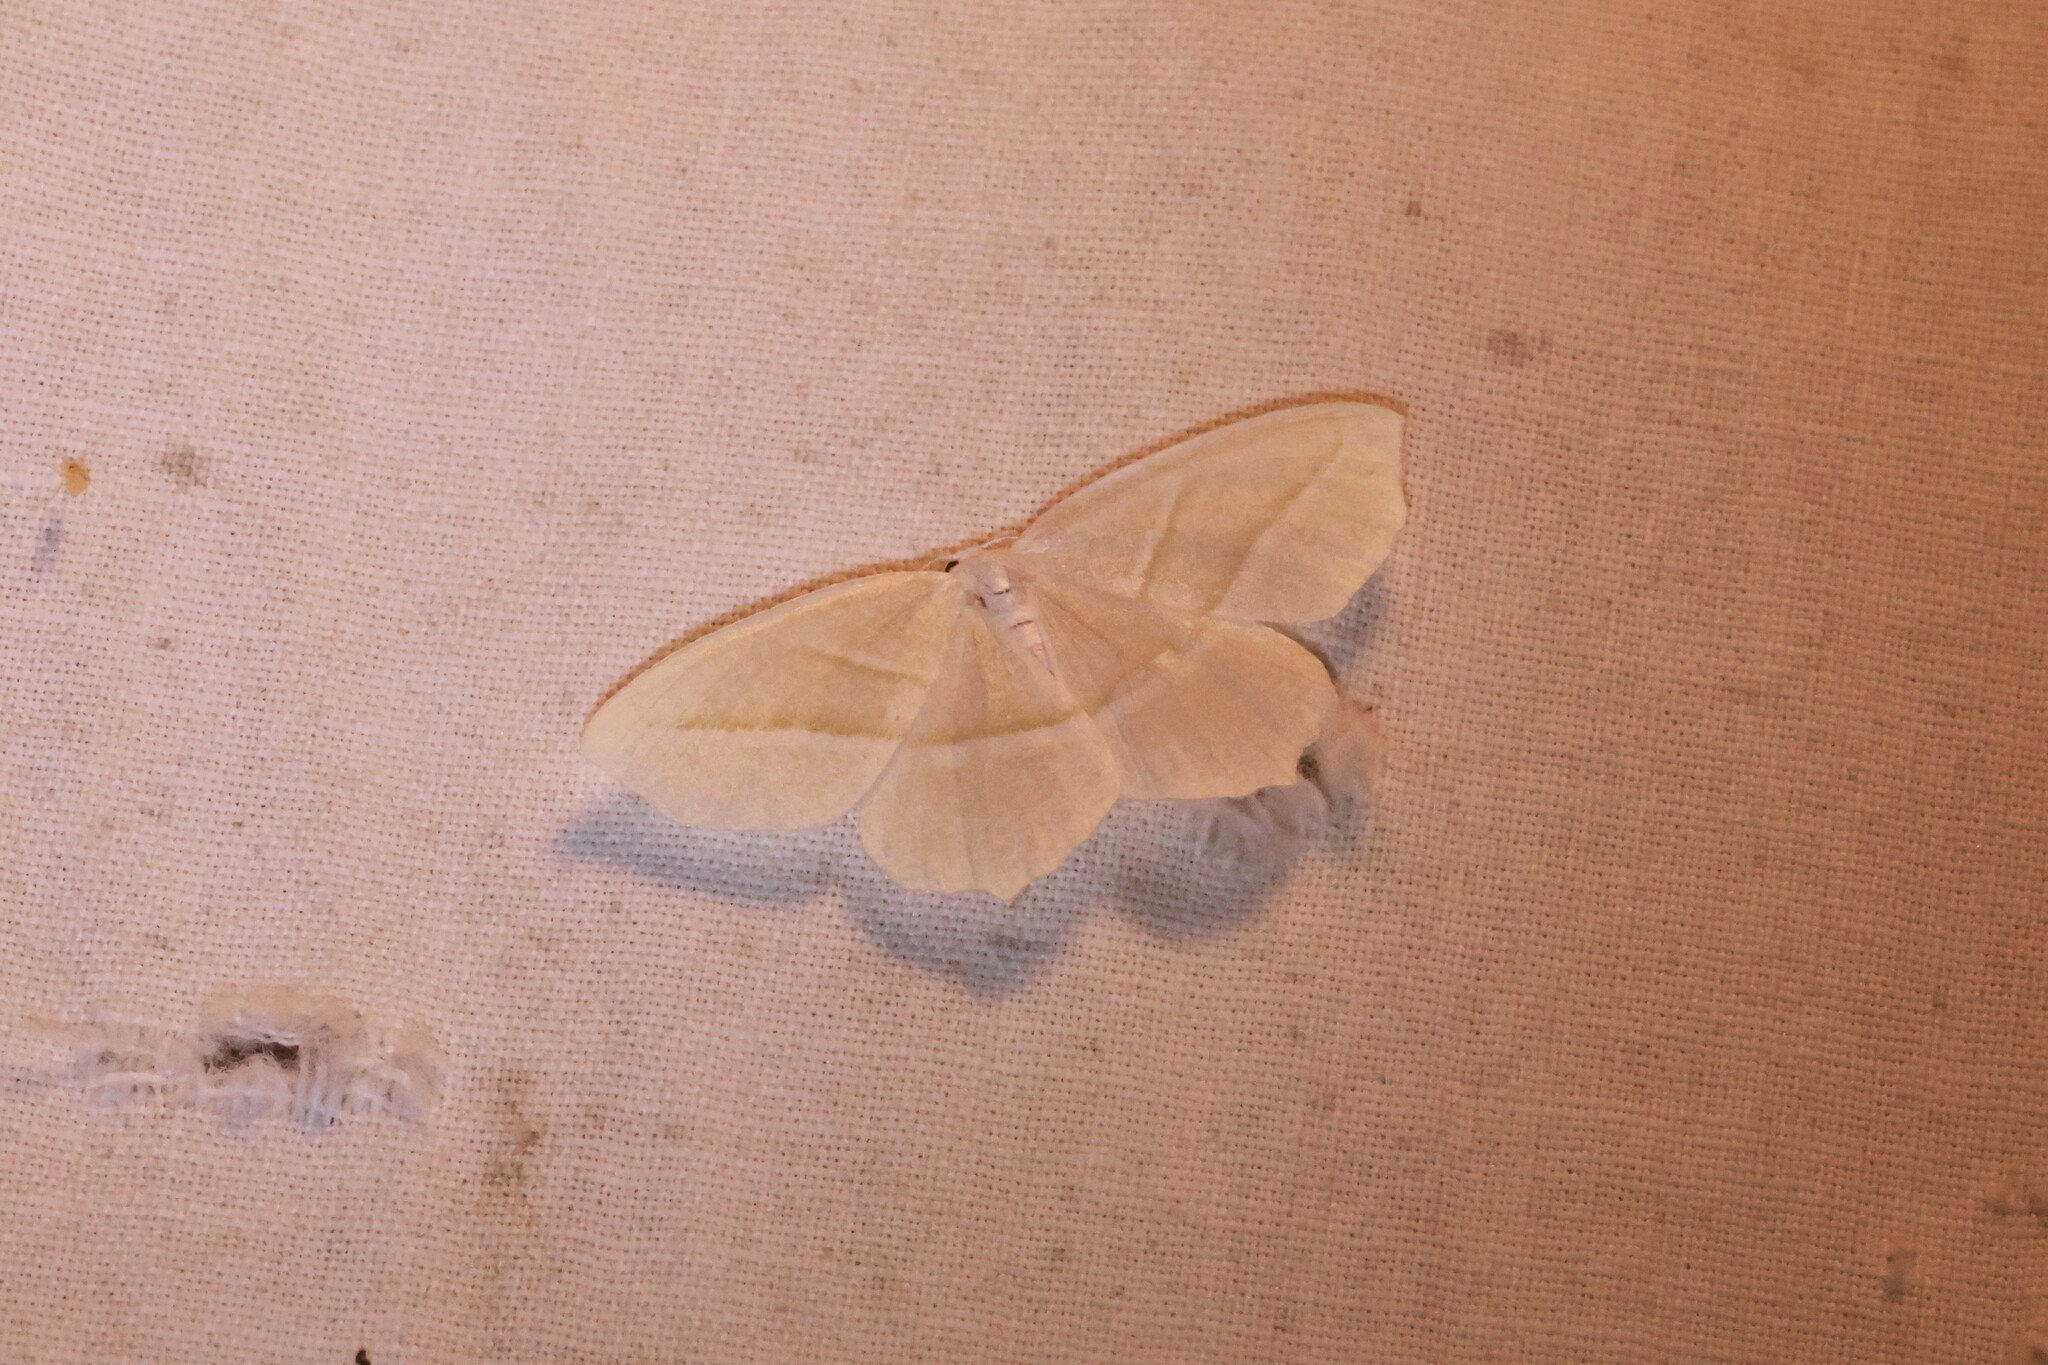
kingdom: Animalia
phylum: Arthropoda
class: Insecta
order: Lepidoptera
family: Geometridae
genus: Campaea
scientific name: Campaea perlata
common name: Fringed looper
